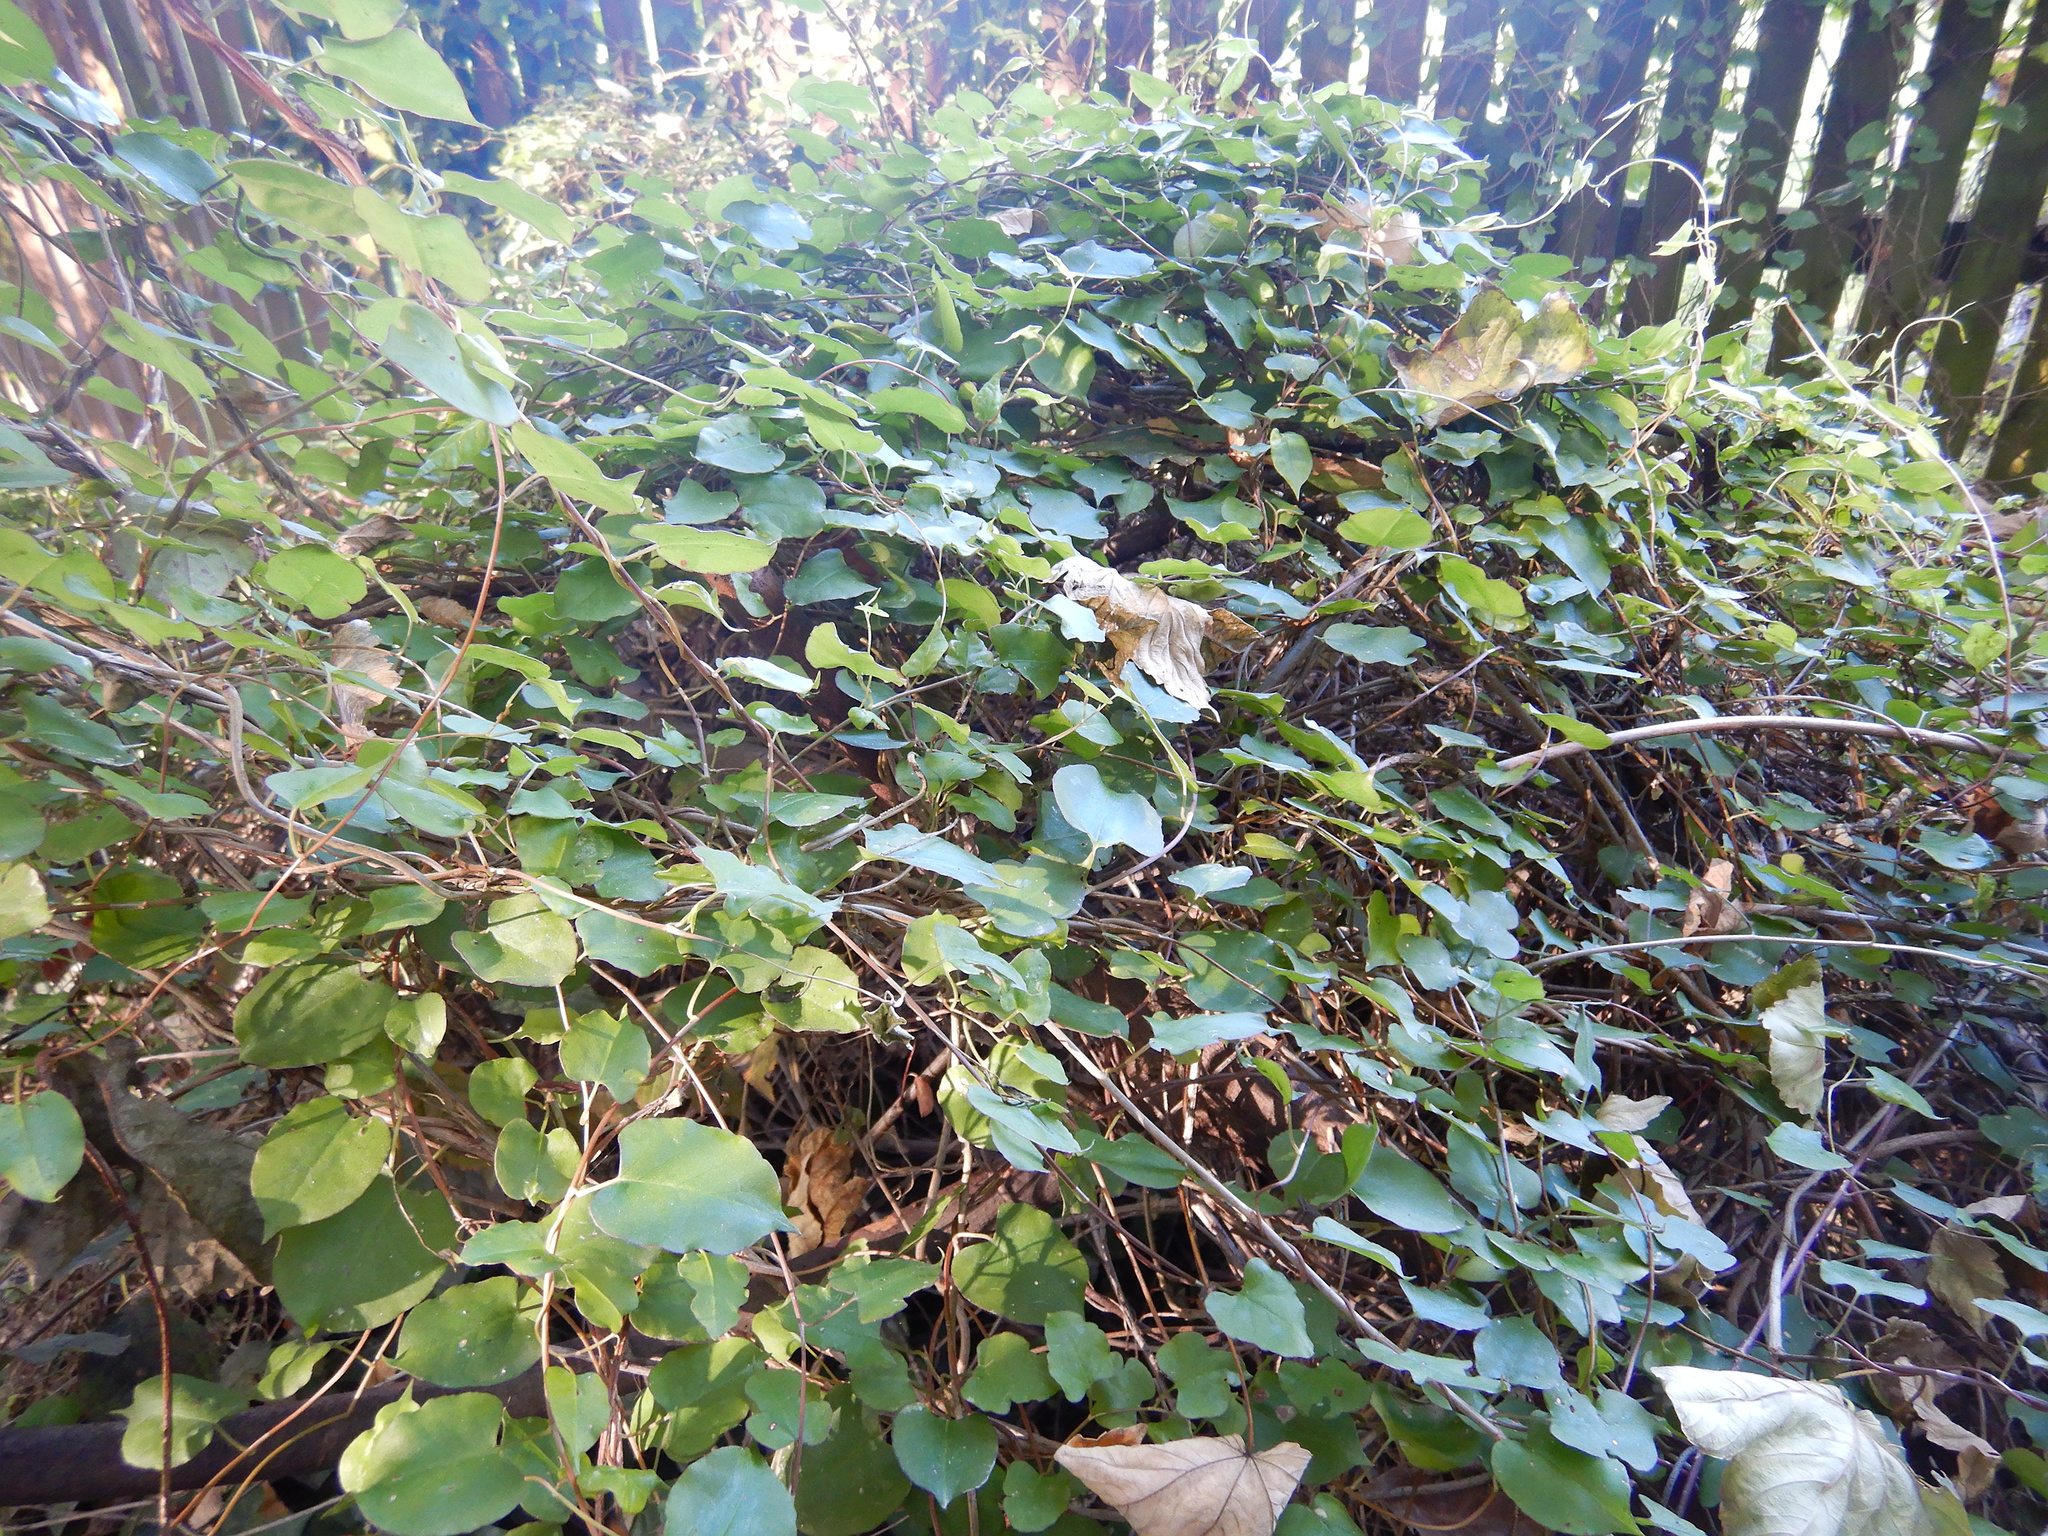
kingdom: Plantae
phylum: Tracheophyta
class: Magnoliopsida
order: Caryophyllales
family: Polygonaceae
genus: Muehlenbeckia
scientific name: Muehlenbeckia australis
